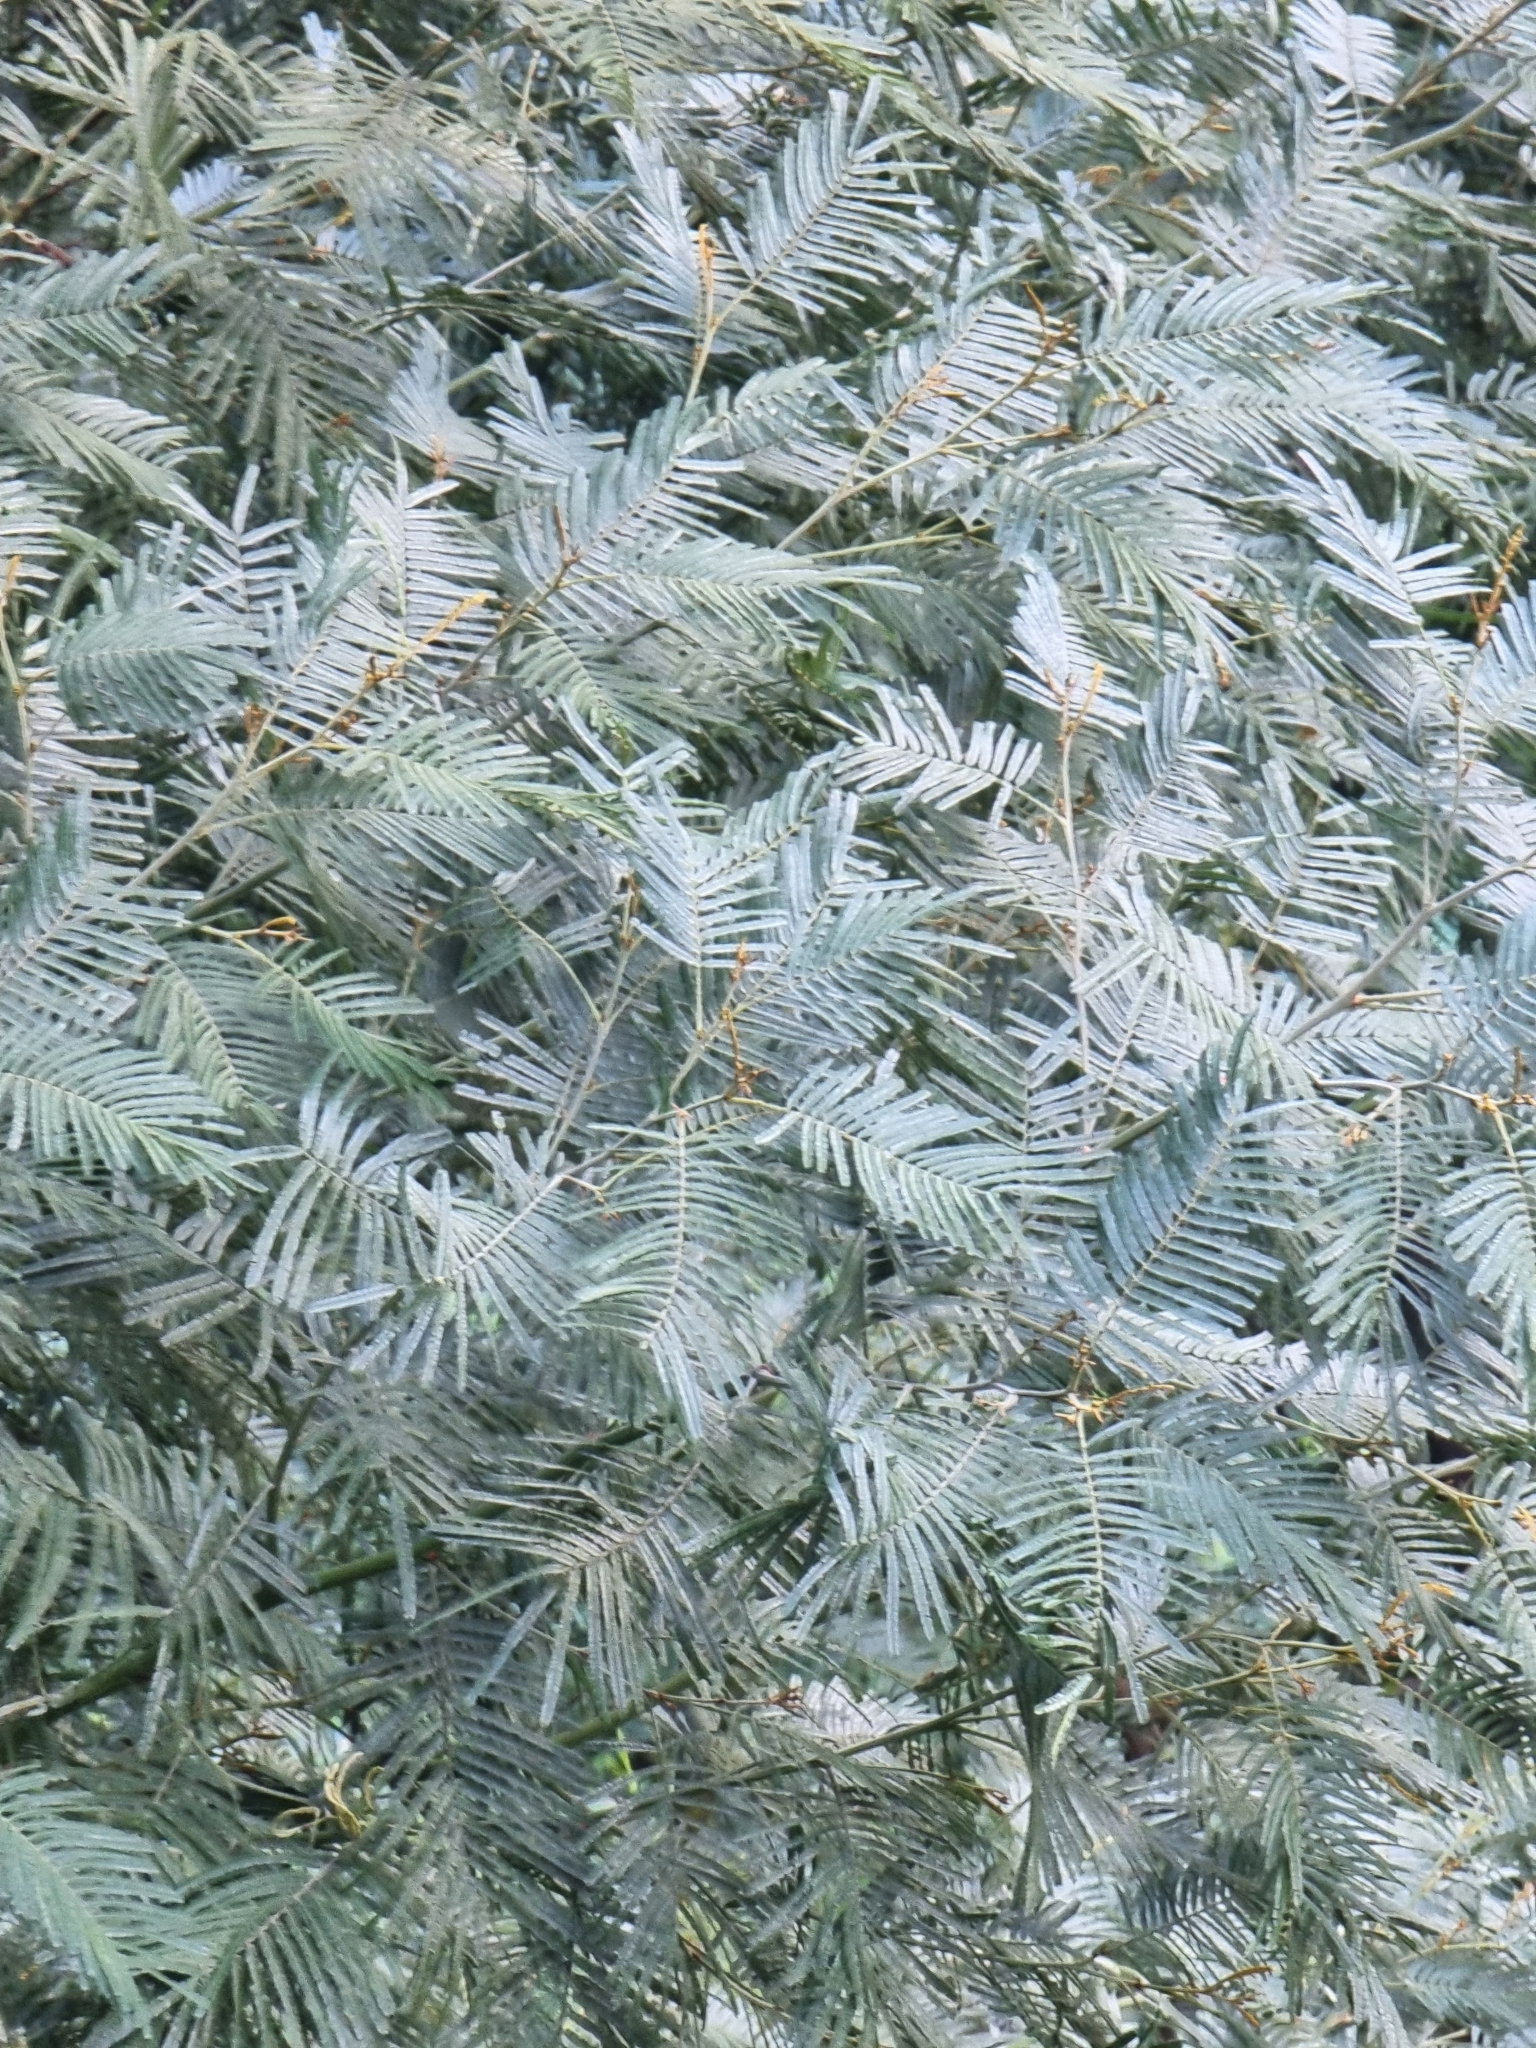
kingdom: Plantae
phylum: Tracheophyta
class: Magnoliopsida
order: Fabales
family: Fabaceae
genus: Acacia
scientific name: Acacia mearnsii
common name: Black wattle
